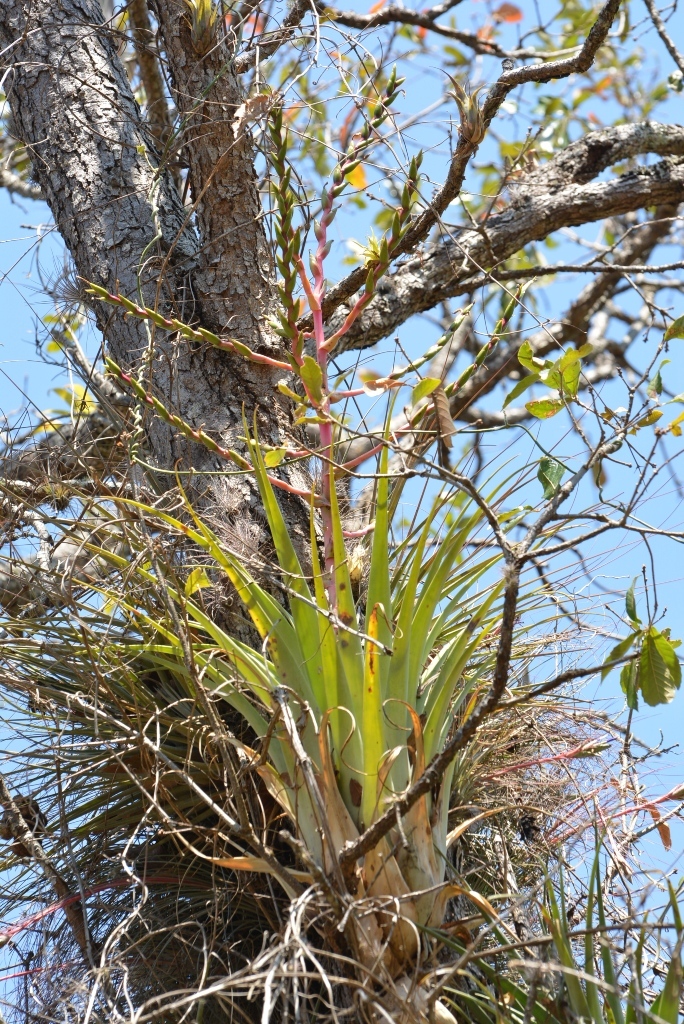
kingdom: Plantae
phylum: Tracheophyta
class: Liliopsida
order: Poales
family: Bromeliaceae
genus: Tillandsia
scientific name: Tillandsia comitanensis
